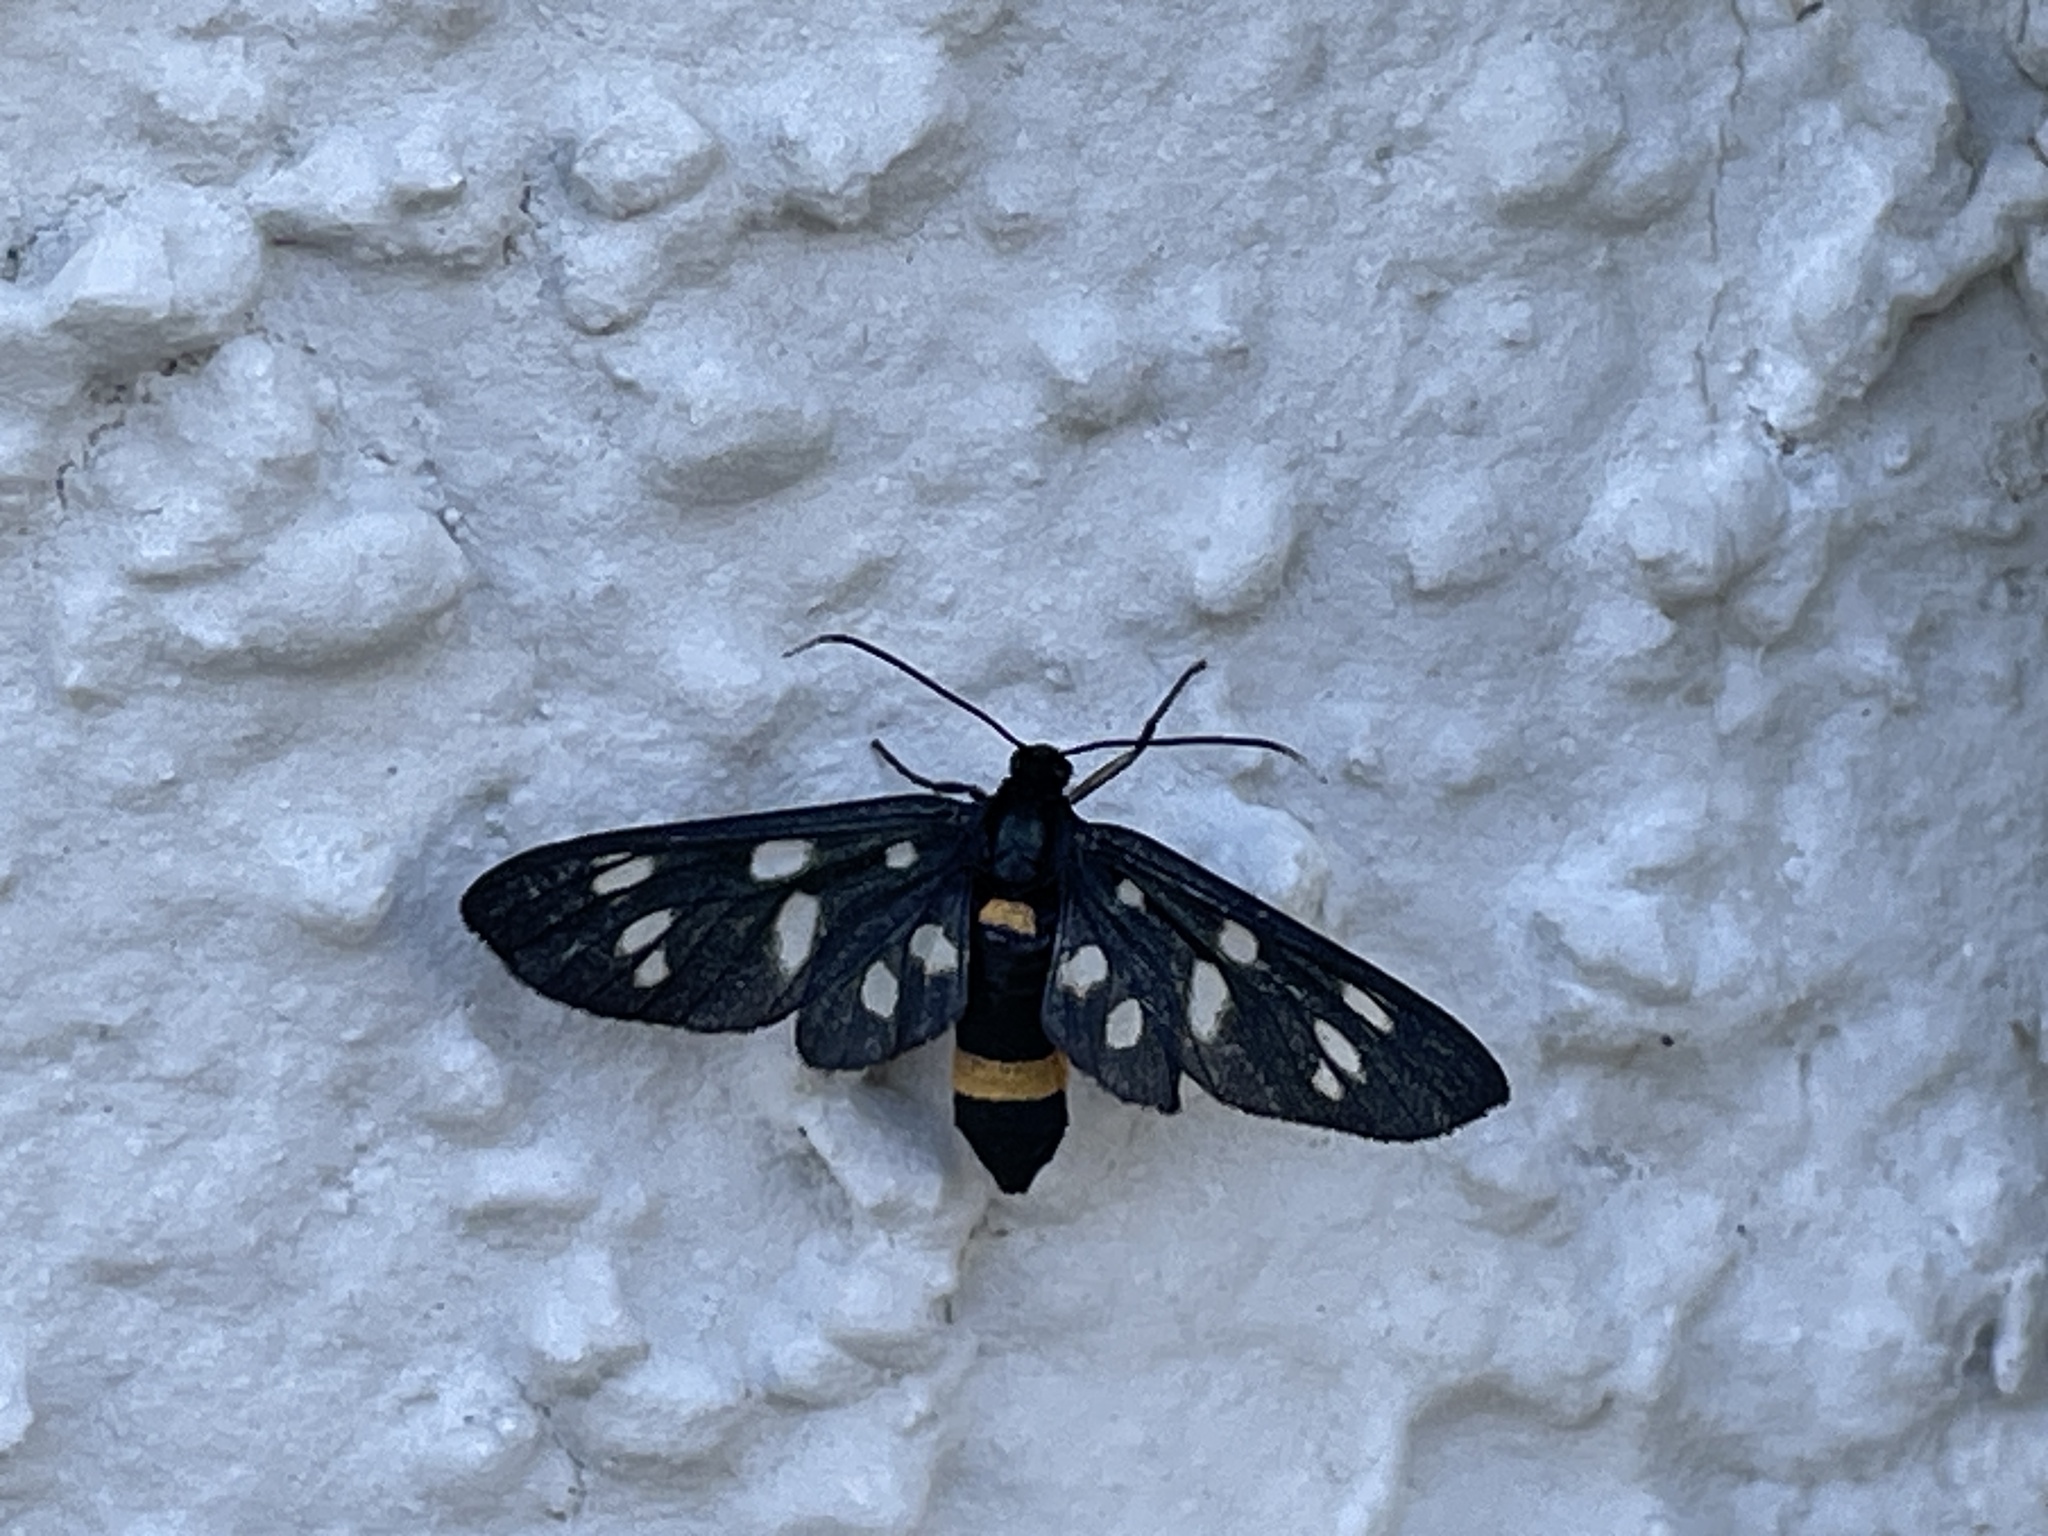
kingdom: Animalia
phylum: Arthropoda
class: Insecta
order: Lepidoptera
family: Erebidae
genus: Amata
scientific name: Amata phegea
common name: Nine-spotted
